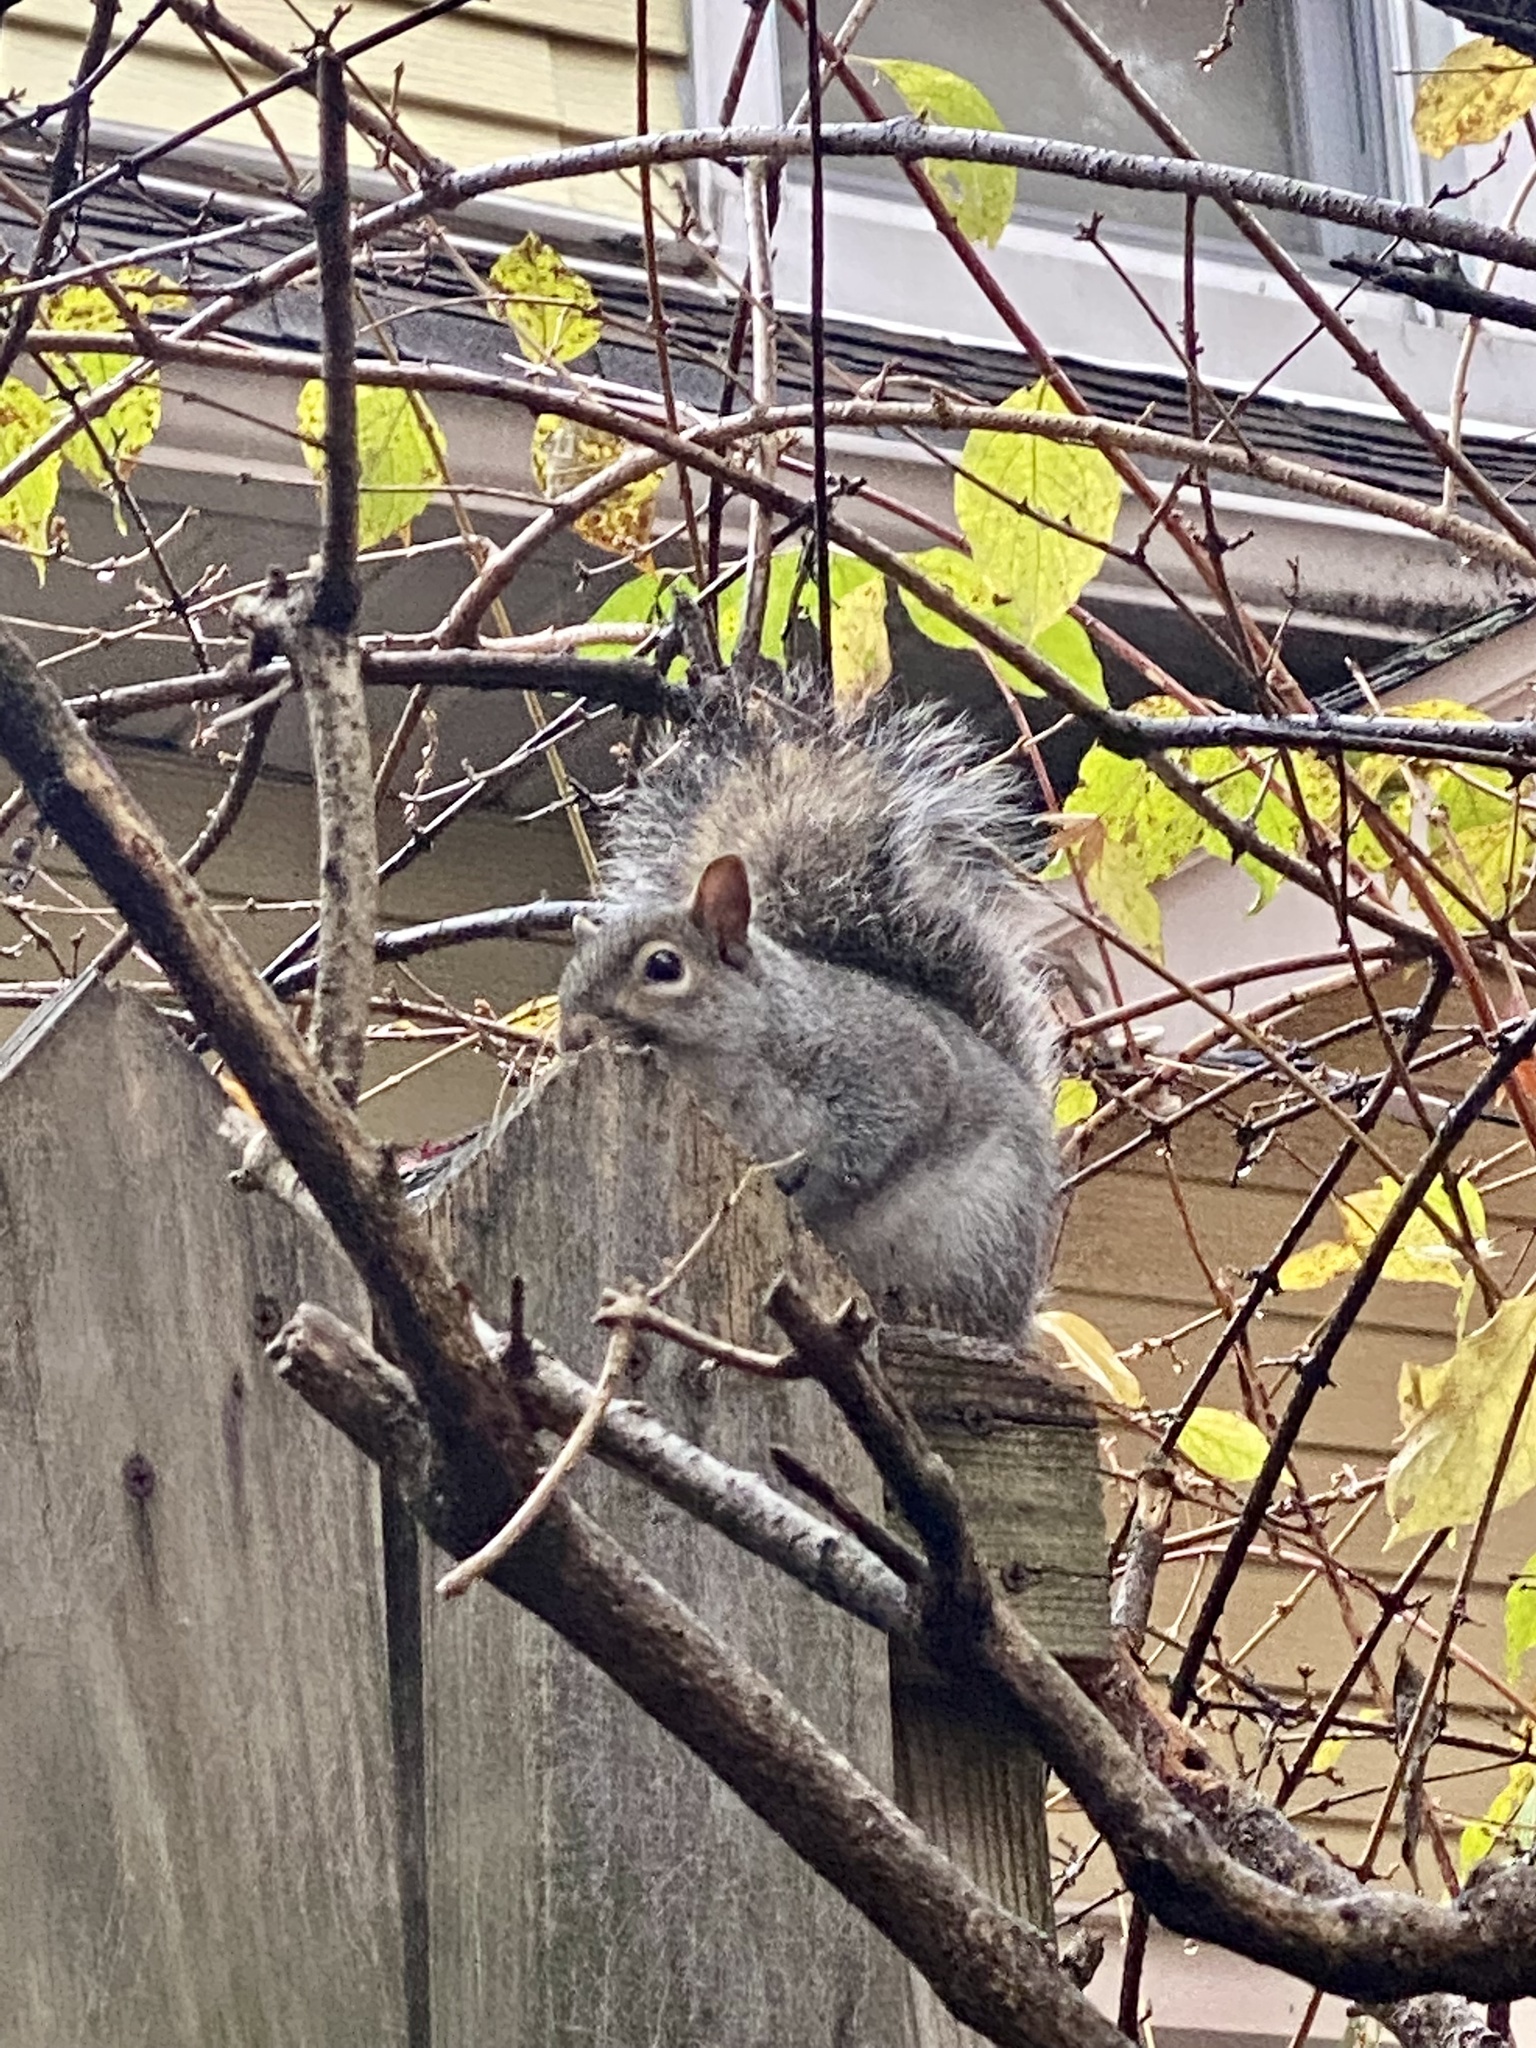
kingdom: Animalia
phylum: Chordata
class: Mammalia
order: Rodentia
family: Sciuridae
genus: Sciurus
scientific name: Sciurus carolinensis
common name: Eastern gray squirrel
